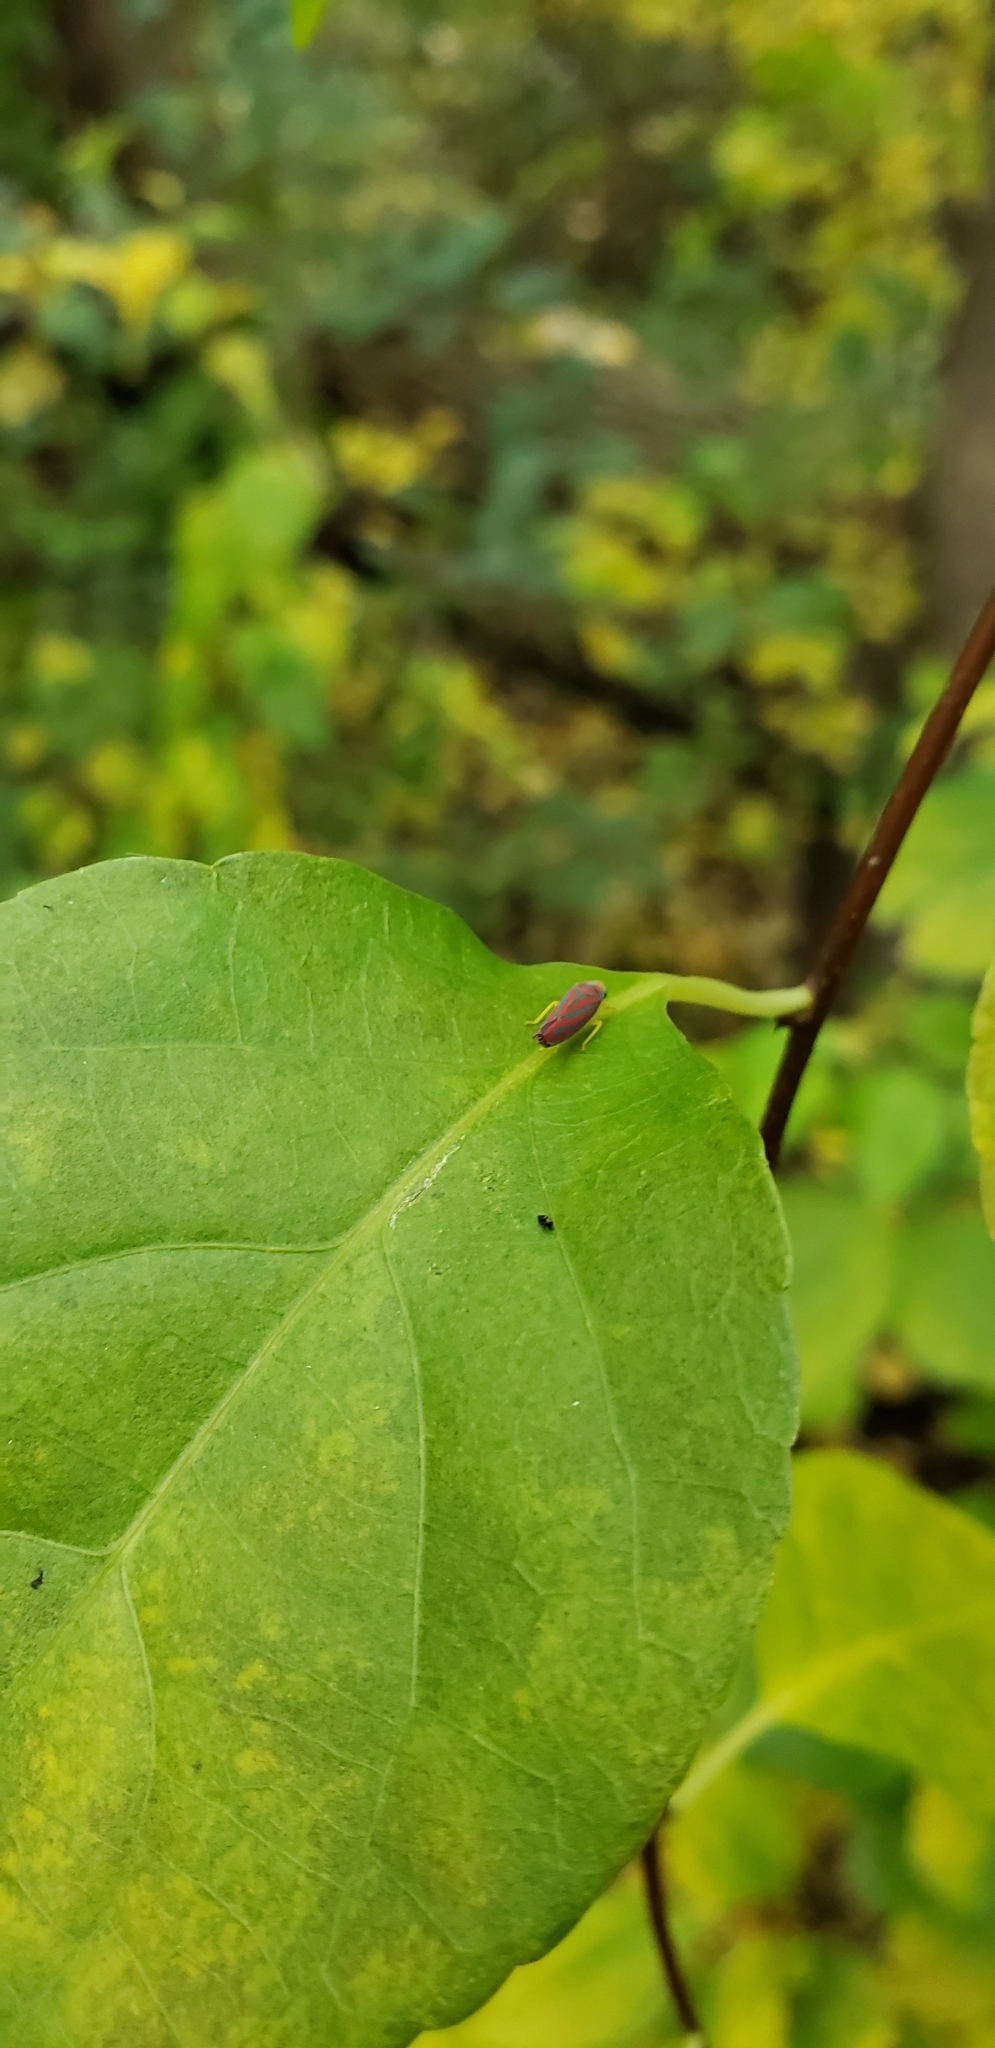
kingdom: Animalia
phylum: Arthropoda
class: Insecta
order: Hemiptera
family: Cicadellidae
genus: Graphocephala
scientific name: Graphocephala coccinea
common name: Candy-striped leafhopper
